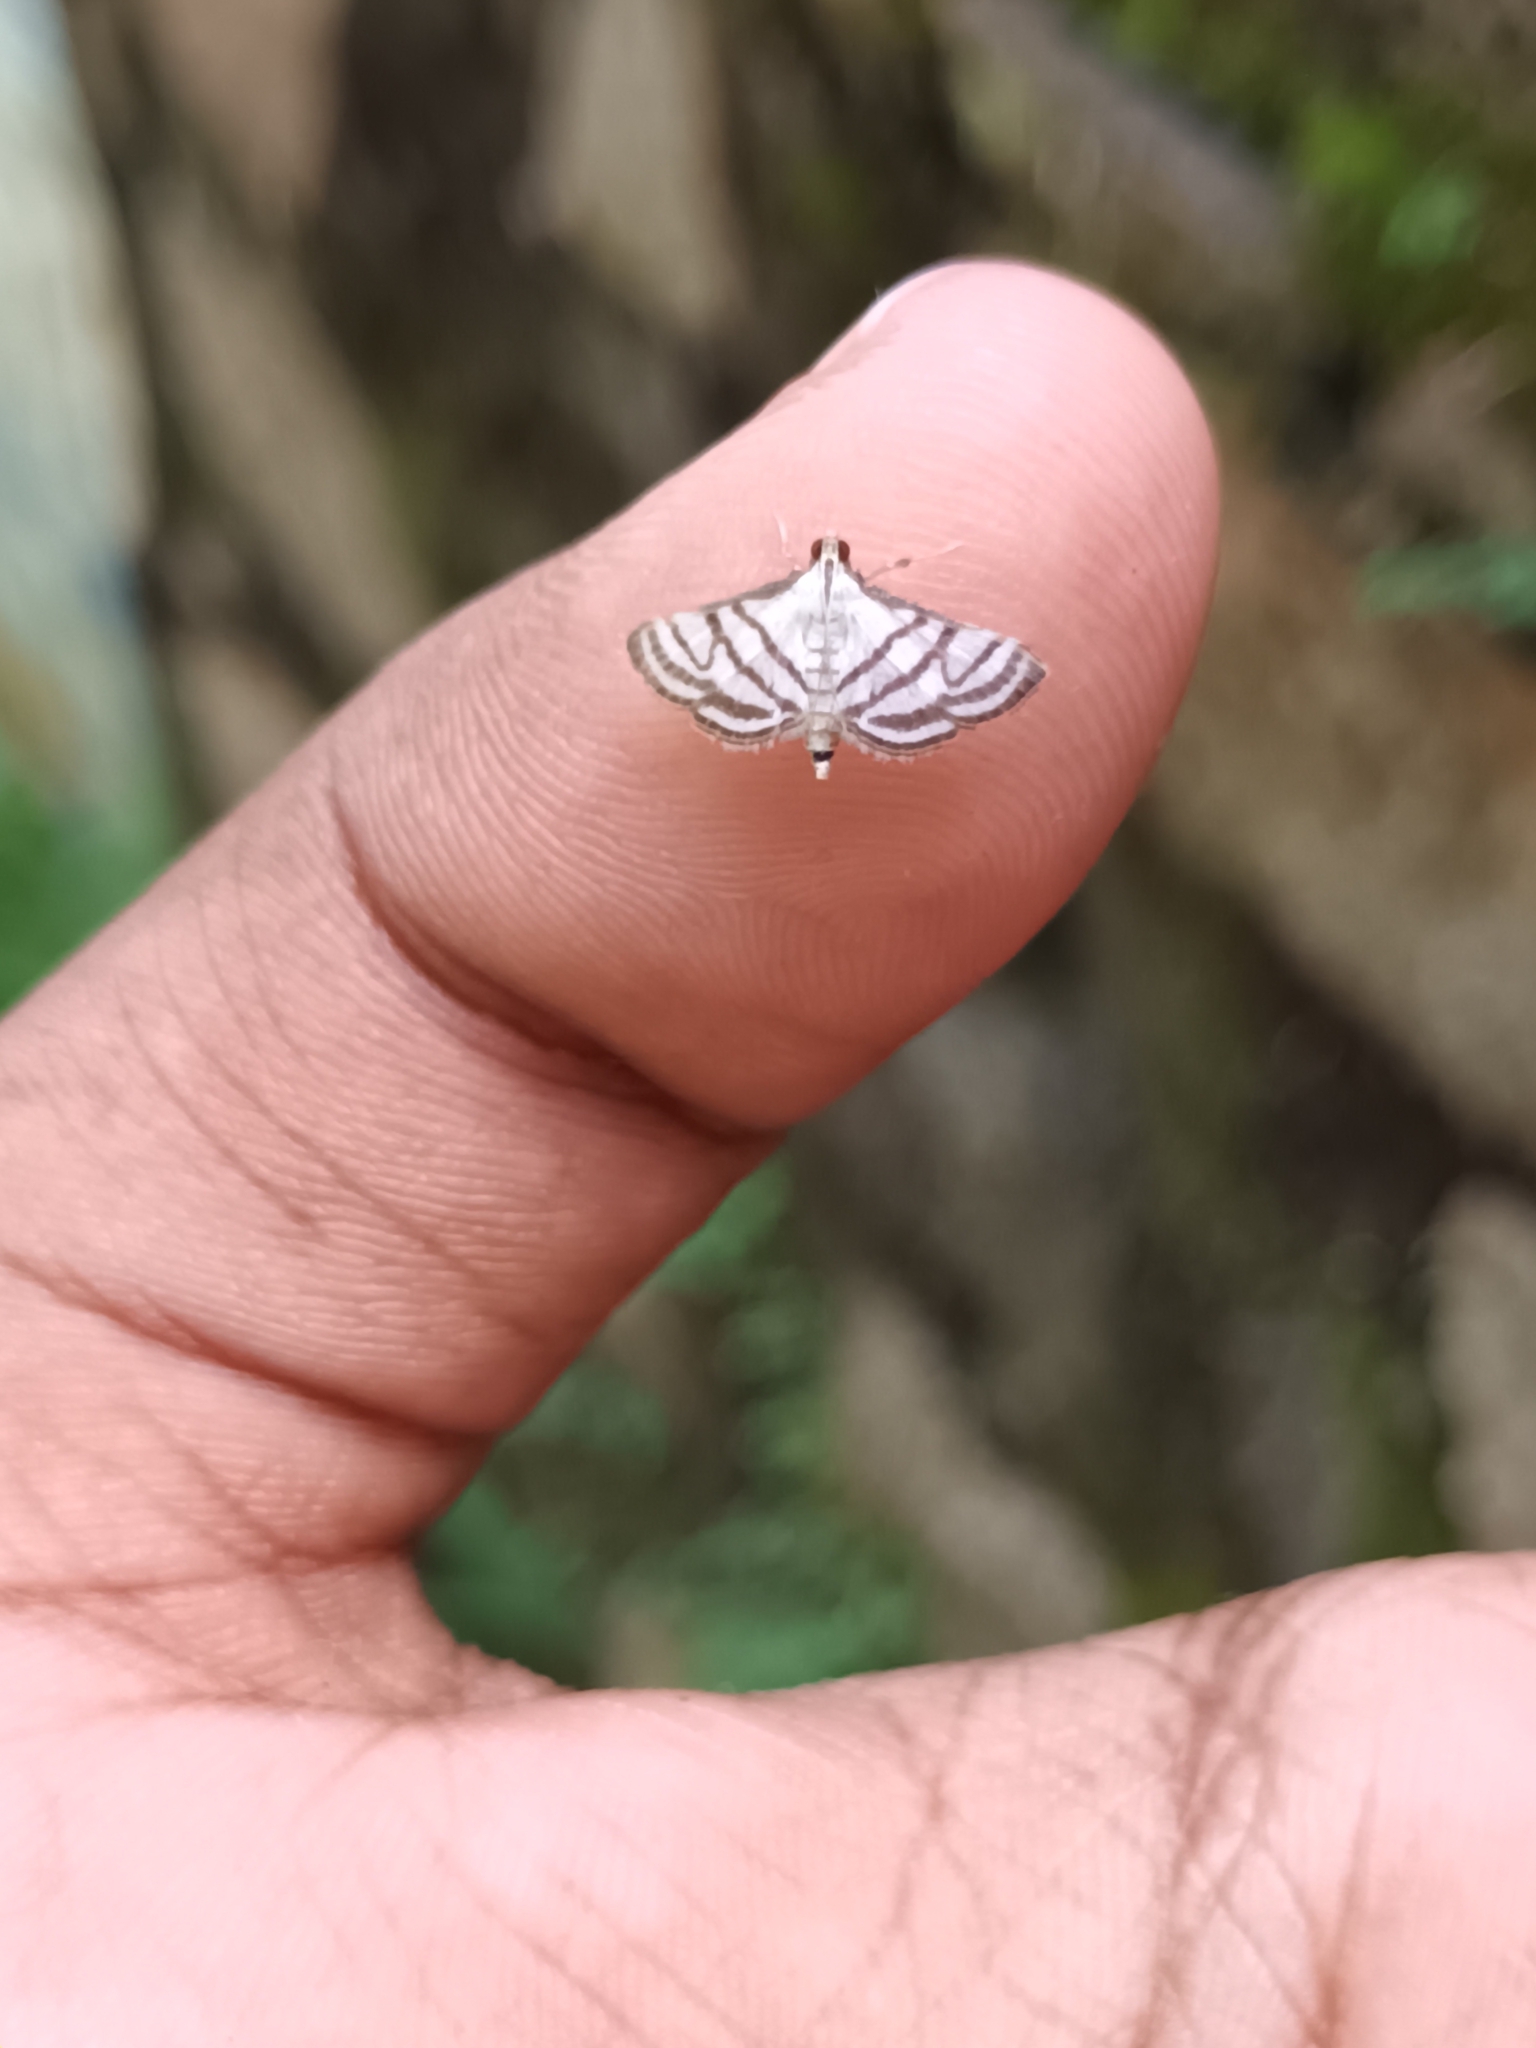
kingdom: Animalia
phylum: Arthropoda
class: Insecta
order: Lepidoptera
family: Crambidae
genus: Ravanoa
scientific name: Ravanoa xiphialis
